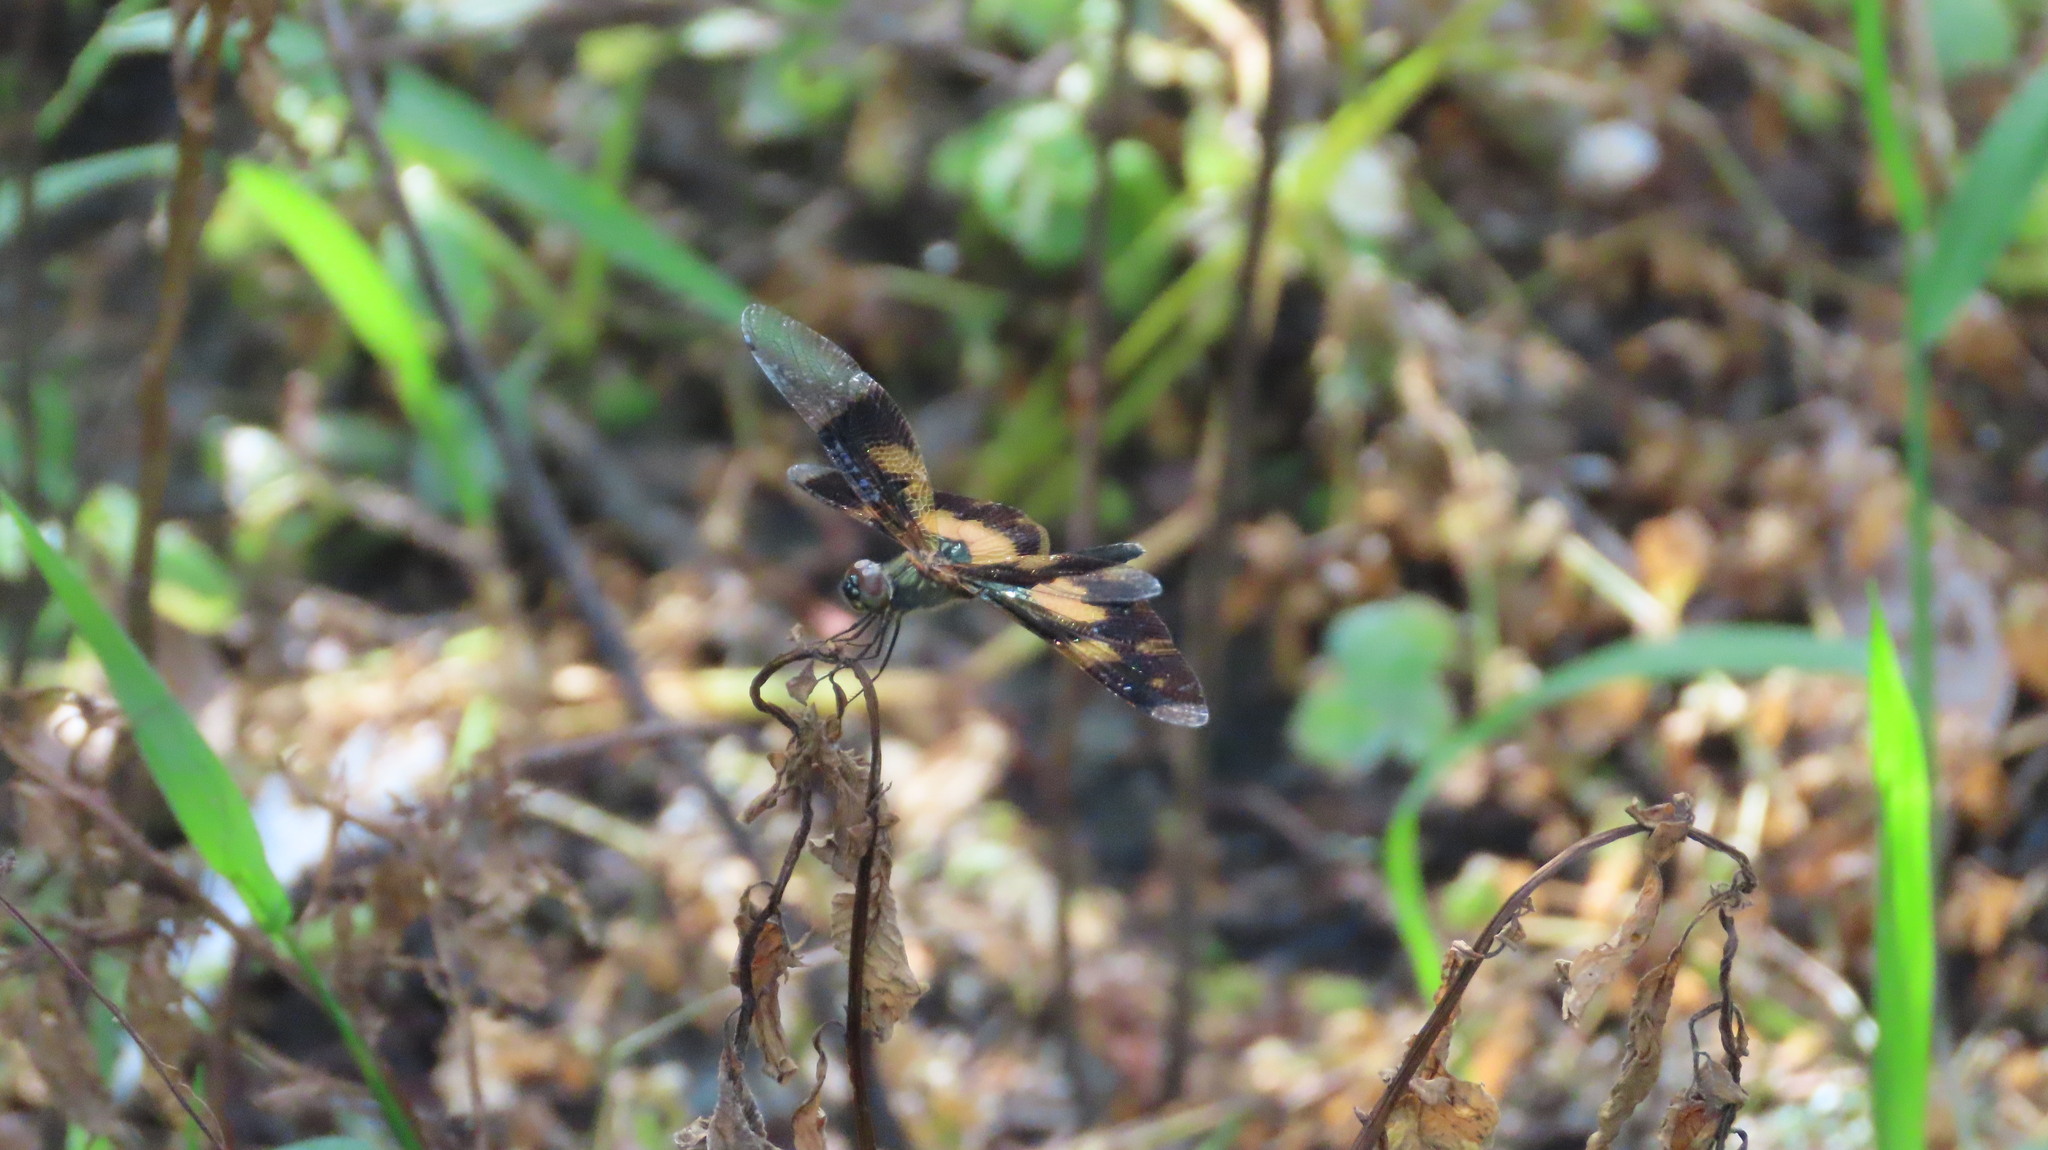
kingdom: Animalia
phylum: Arthropoda
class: Insecta
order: Odonata
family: Libellulidae
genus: Rhyothemis
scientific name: Rhyothemis variegata
